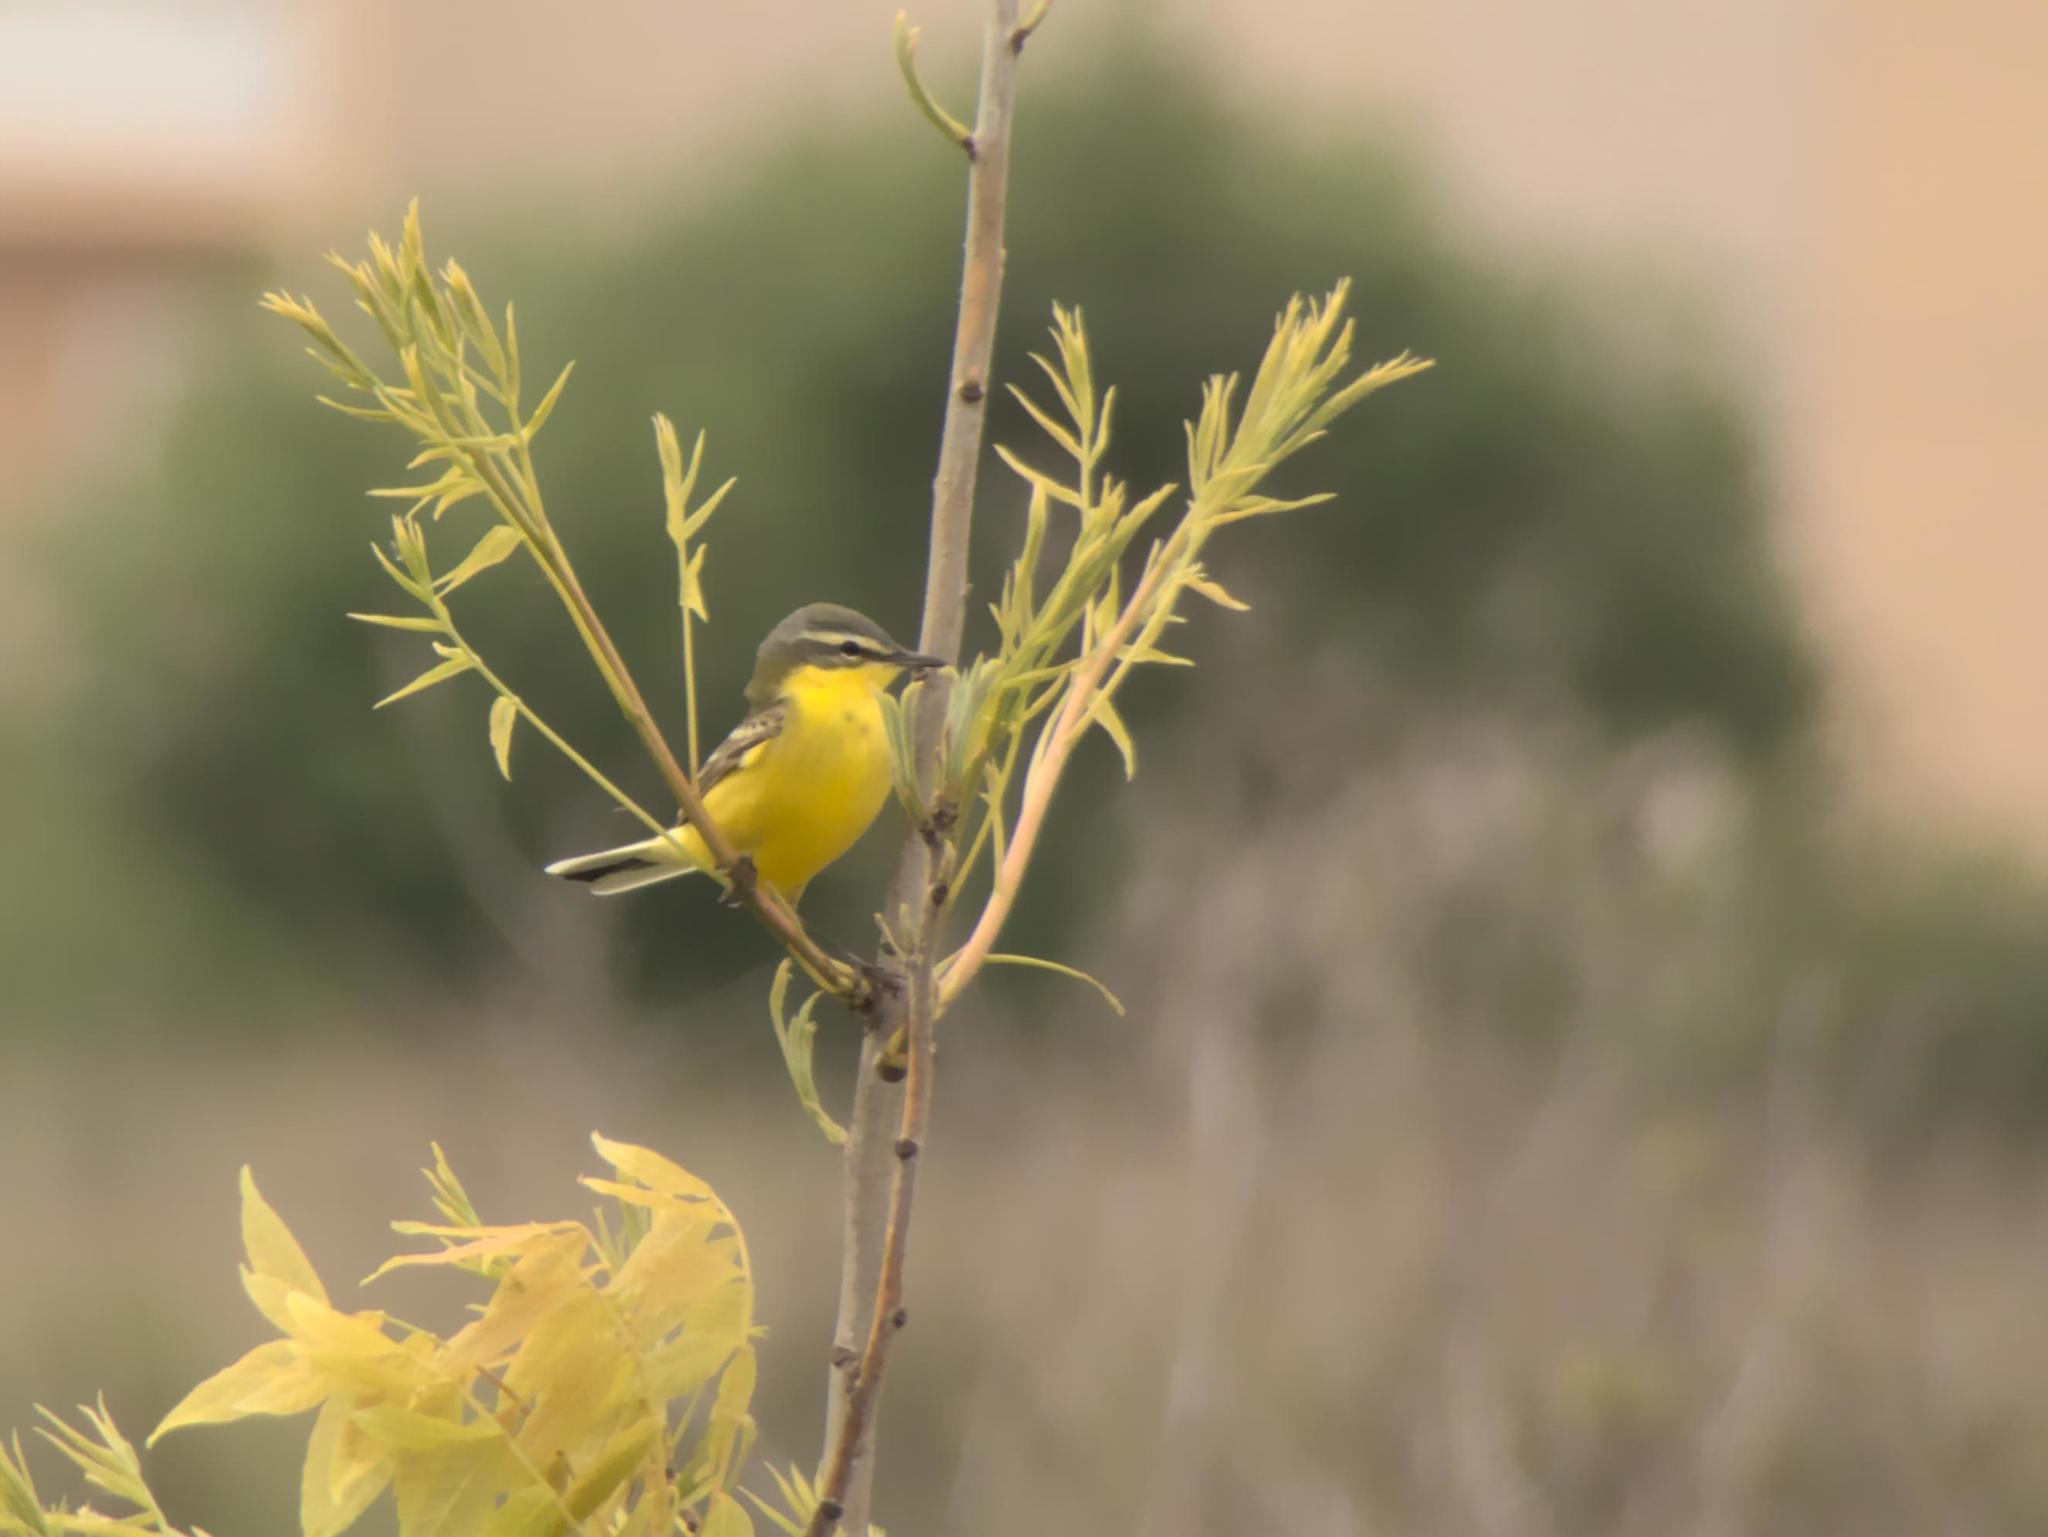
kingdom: Animalia
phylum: Chordata
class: Aves
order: Passeriformes
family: Motacillidae
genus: Motacilla
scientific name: Motacilla flava
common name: Western yellow wagtail
